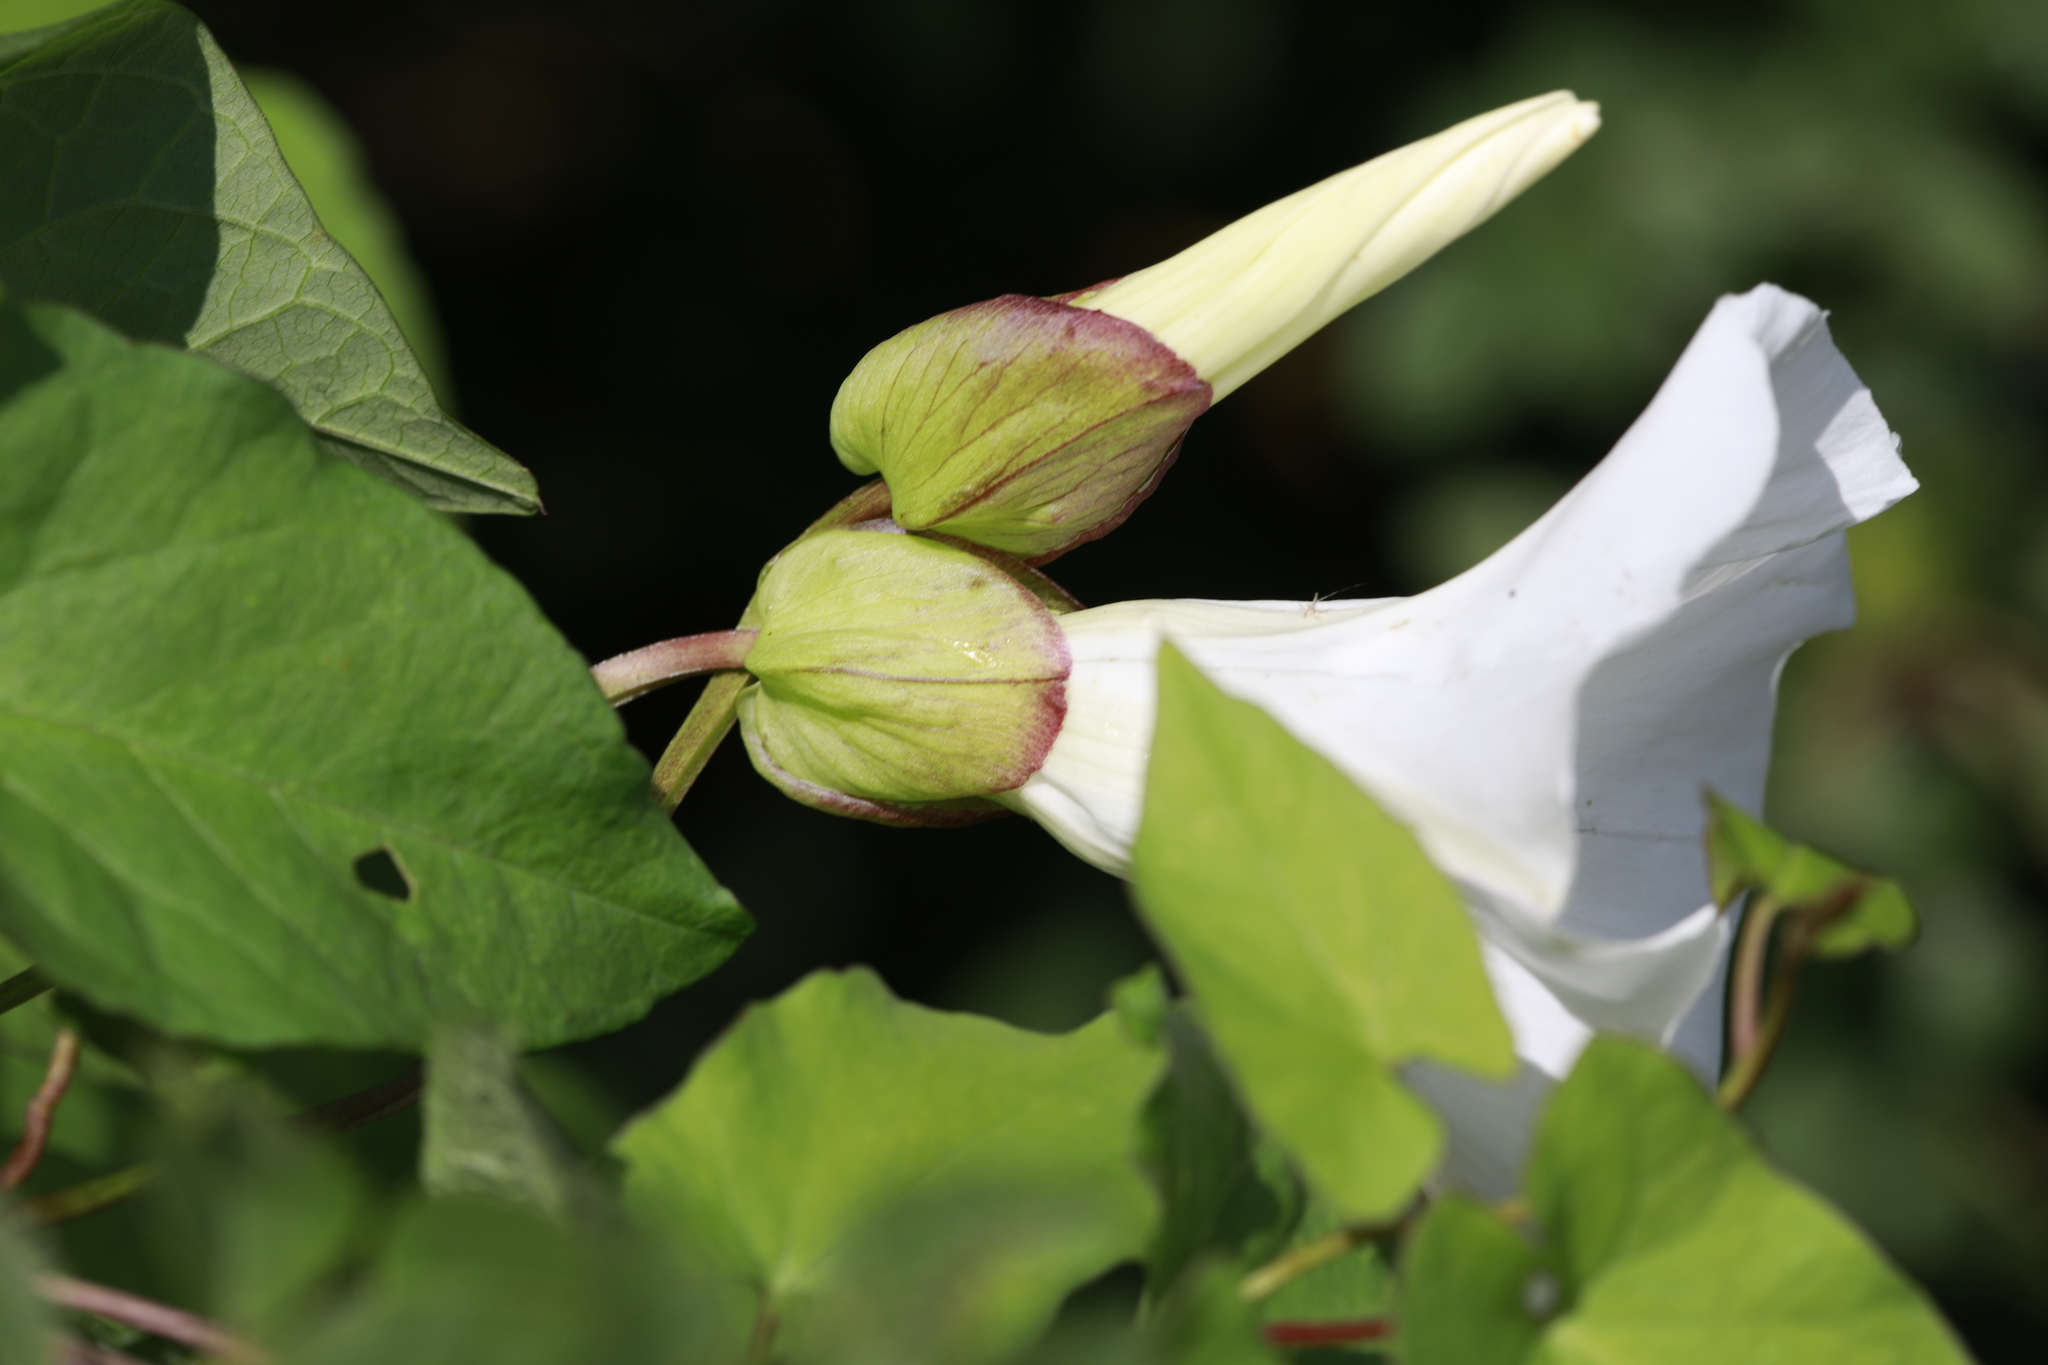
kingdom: Plantae
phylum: Tracheophyta
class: Magnoliopsida
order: Solanales
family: Convolvulaceae
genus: Calystegia
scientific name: Calystegia silvatica
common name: Large bindweed
